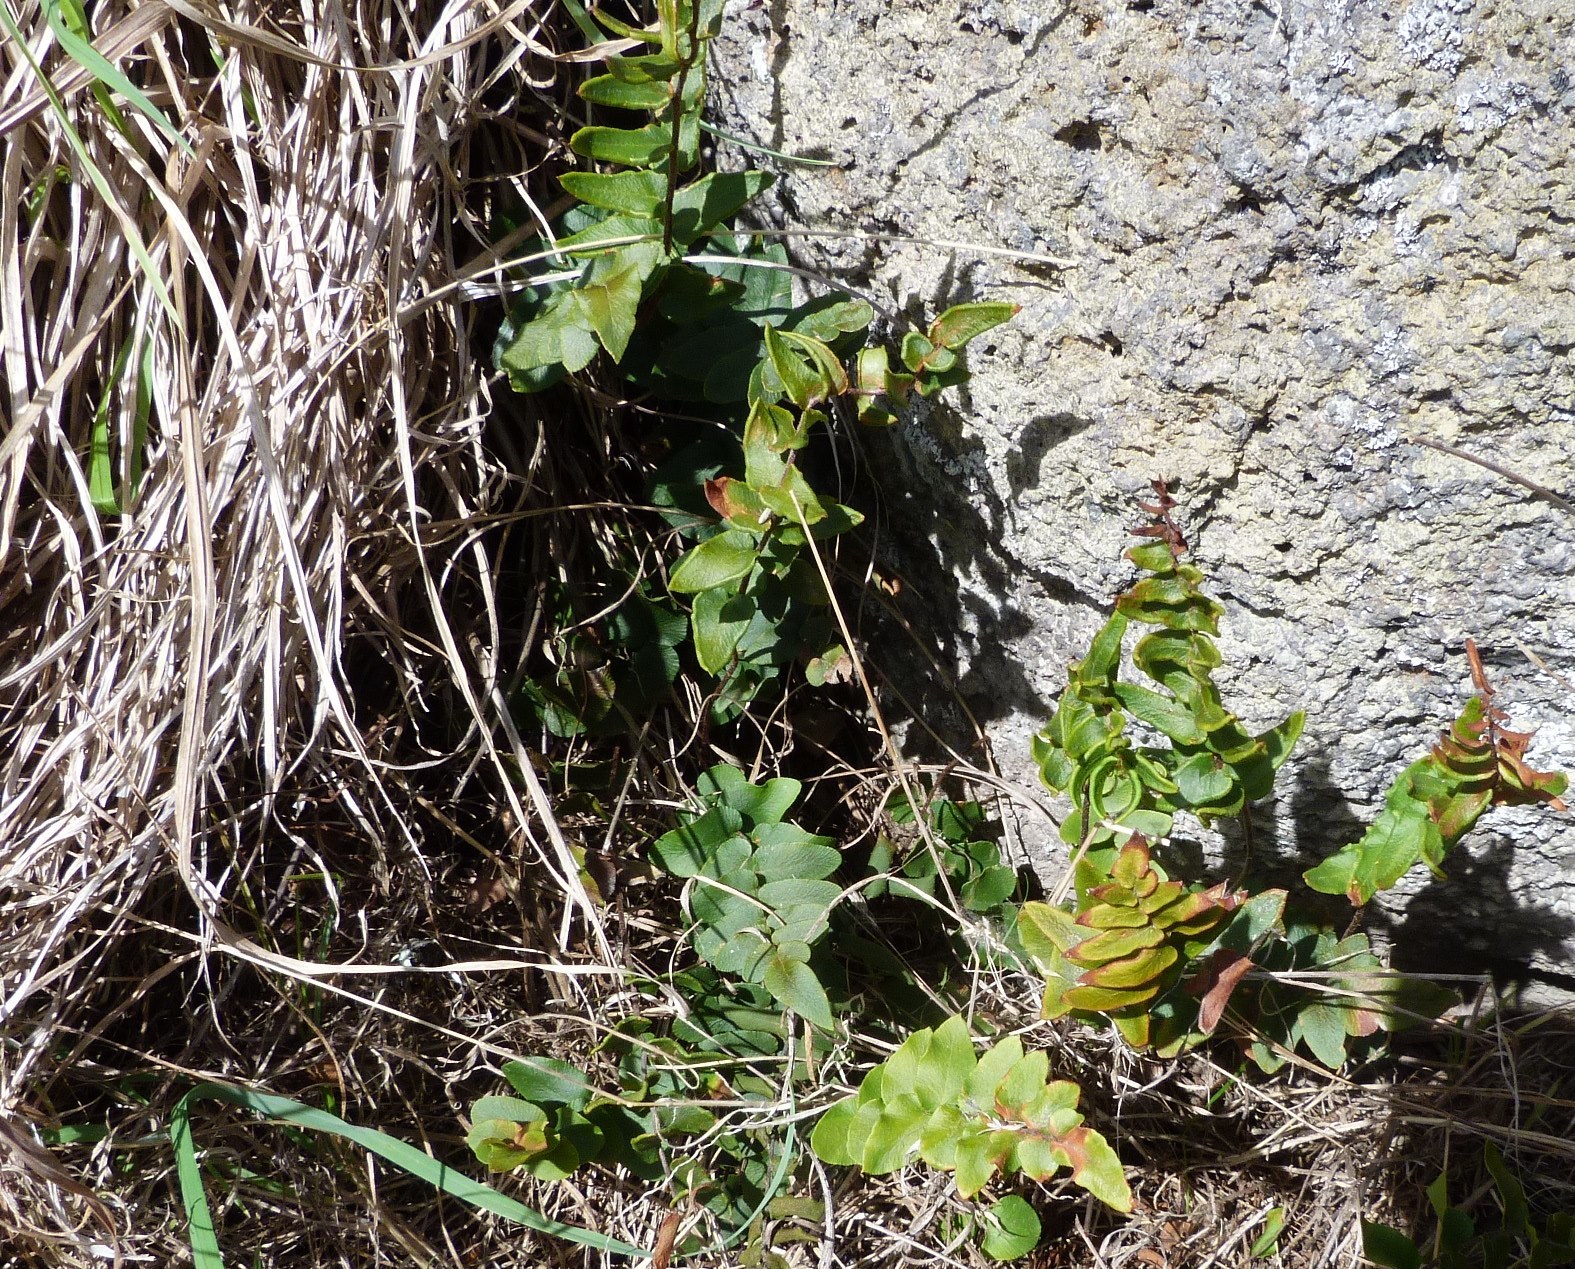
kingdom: Plantae
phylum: Tracheophyta
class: Polypodiopsida
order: Polypodiales
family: Pteridaceae
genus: Pellaea
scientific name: Pellaea calidirupium
